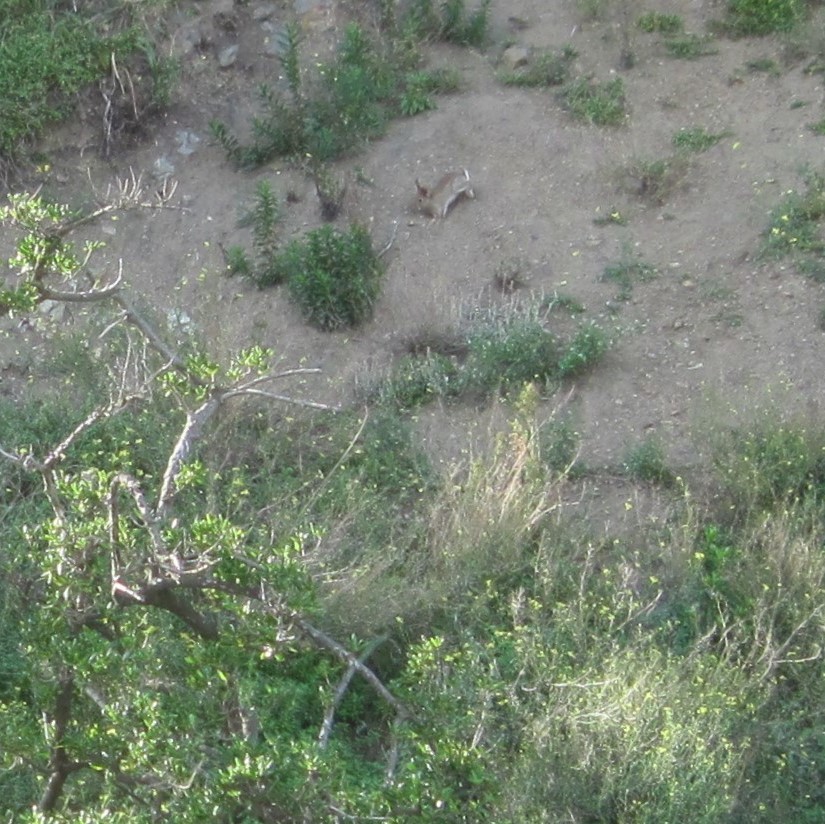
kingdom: Animalia
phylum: Chordata
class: Mammalia
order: Lagomorpha
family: Leporidae
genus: Oryctolagus
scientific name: Oryctolagus cuniculus
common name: European rabbit
